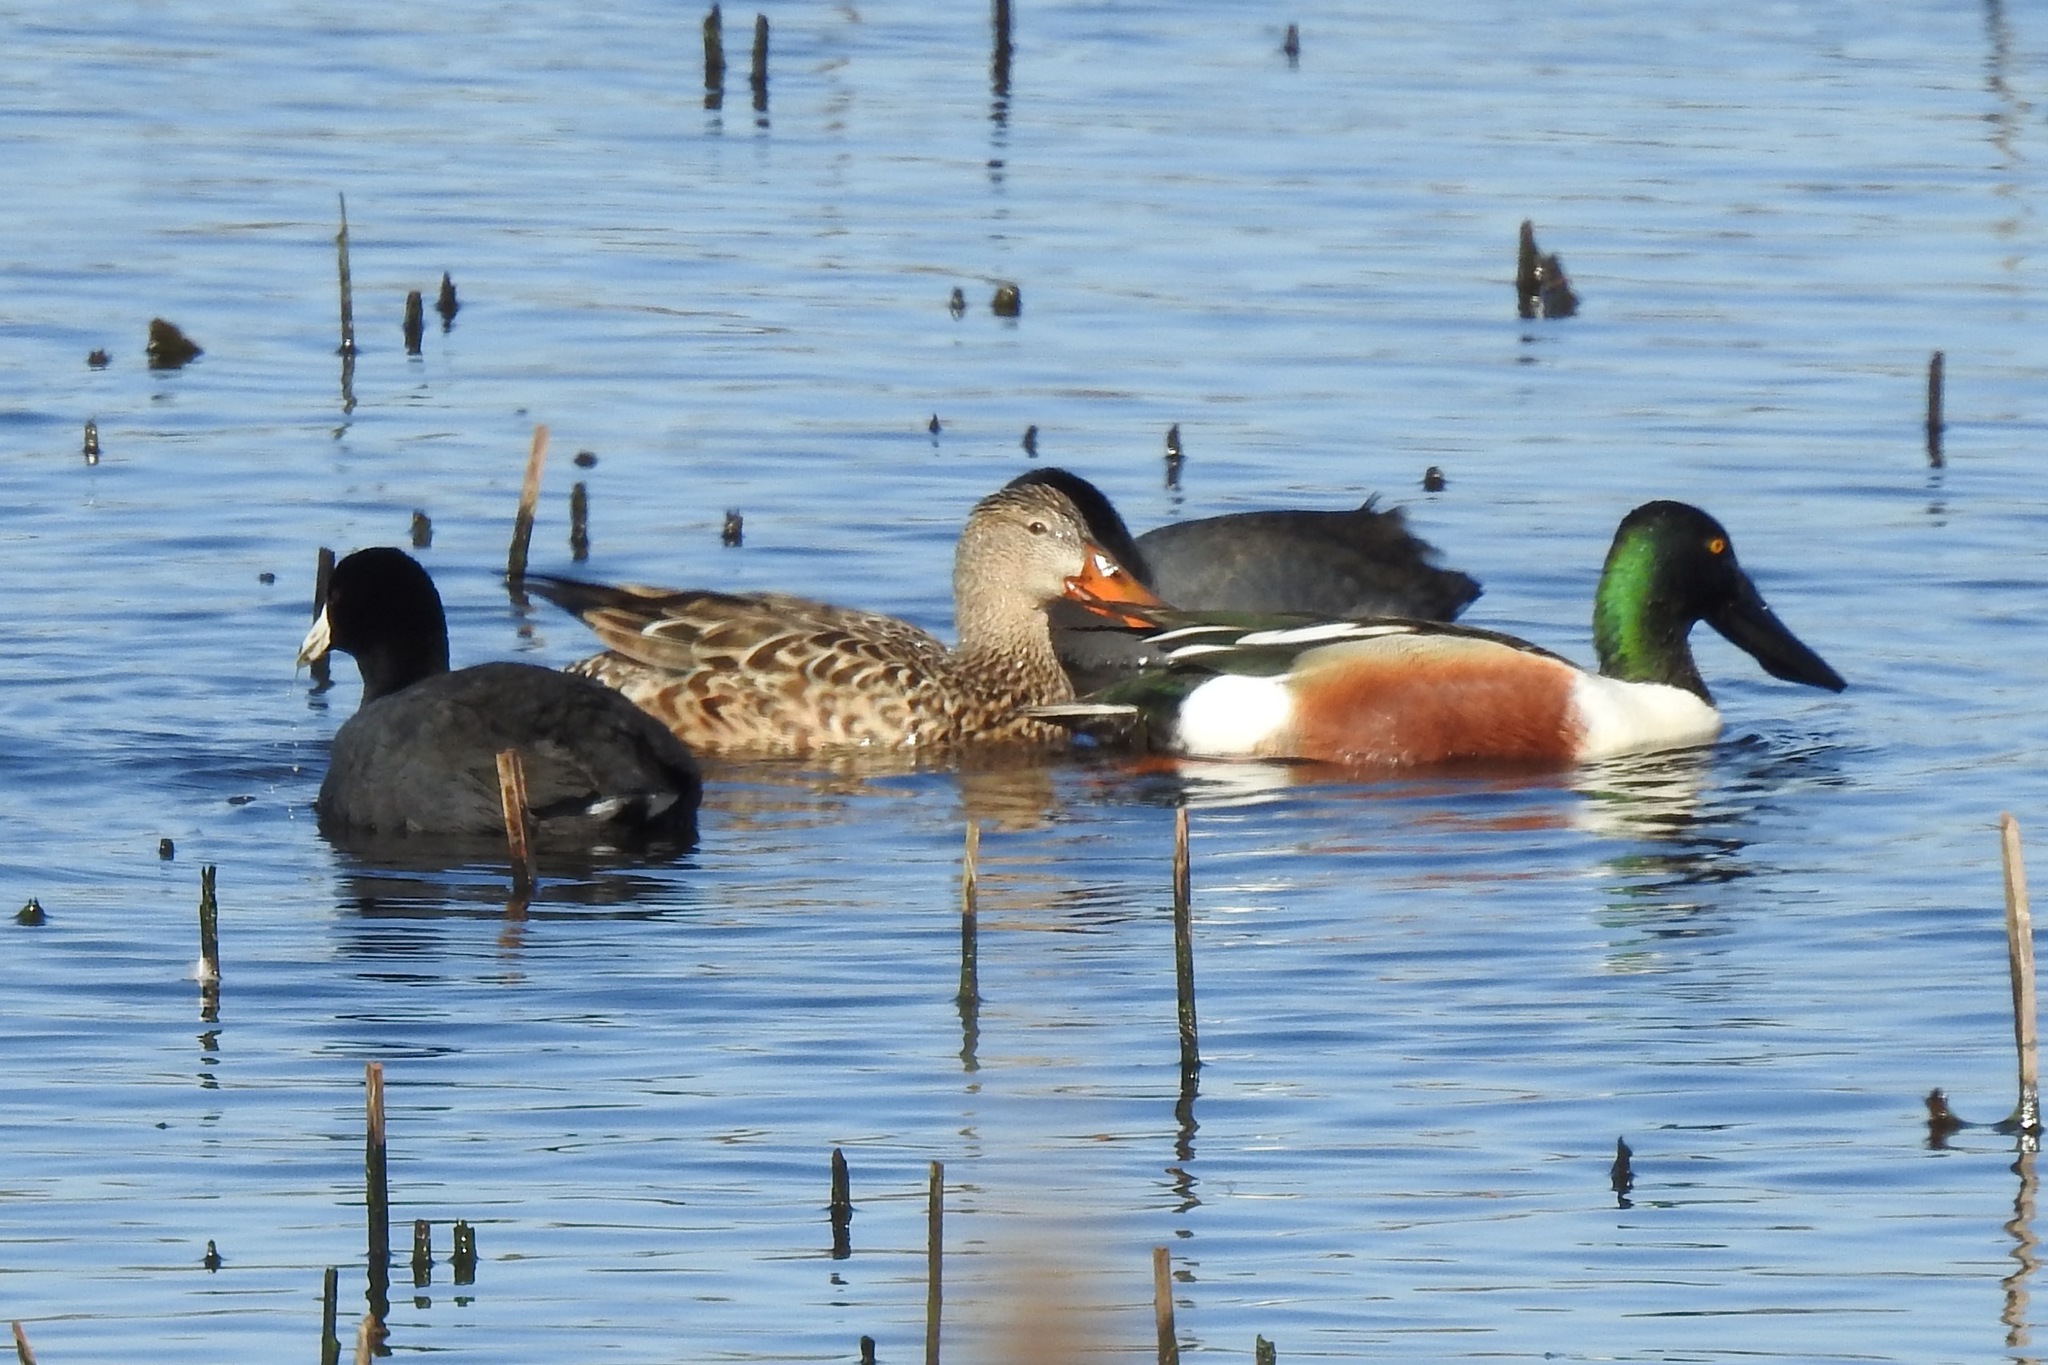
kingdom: Animalia
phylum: Chordata
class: Aves
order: Anseriformes
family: Anatidae
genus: Spatula
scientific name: Spatula clypeata
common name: Northern shoveler
